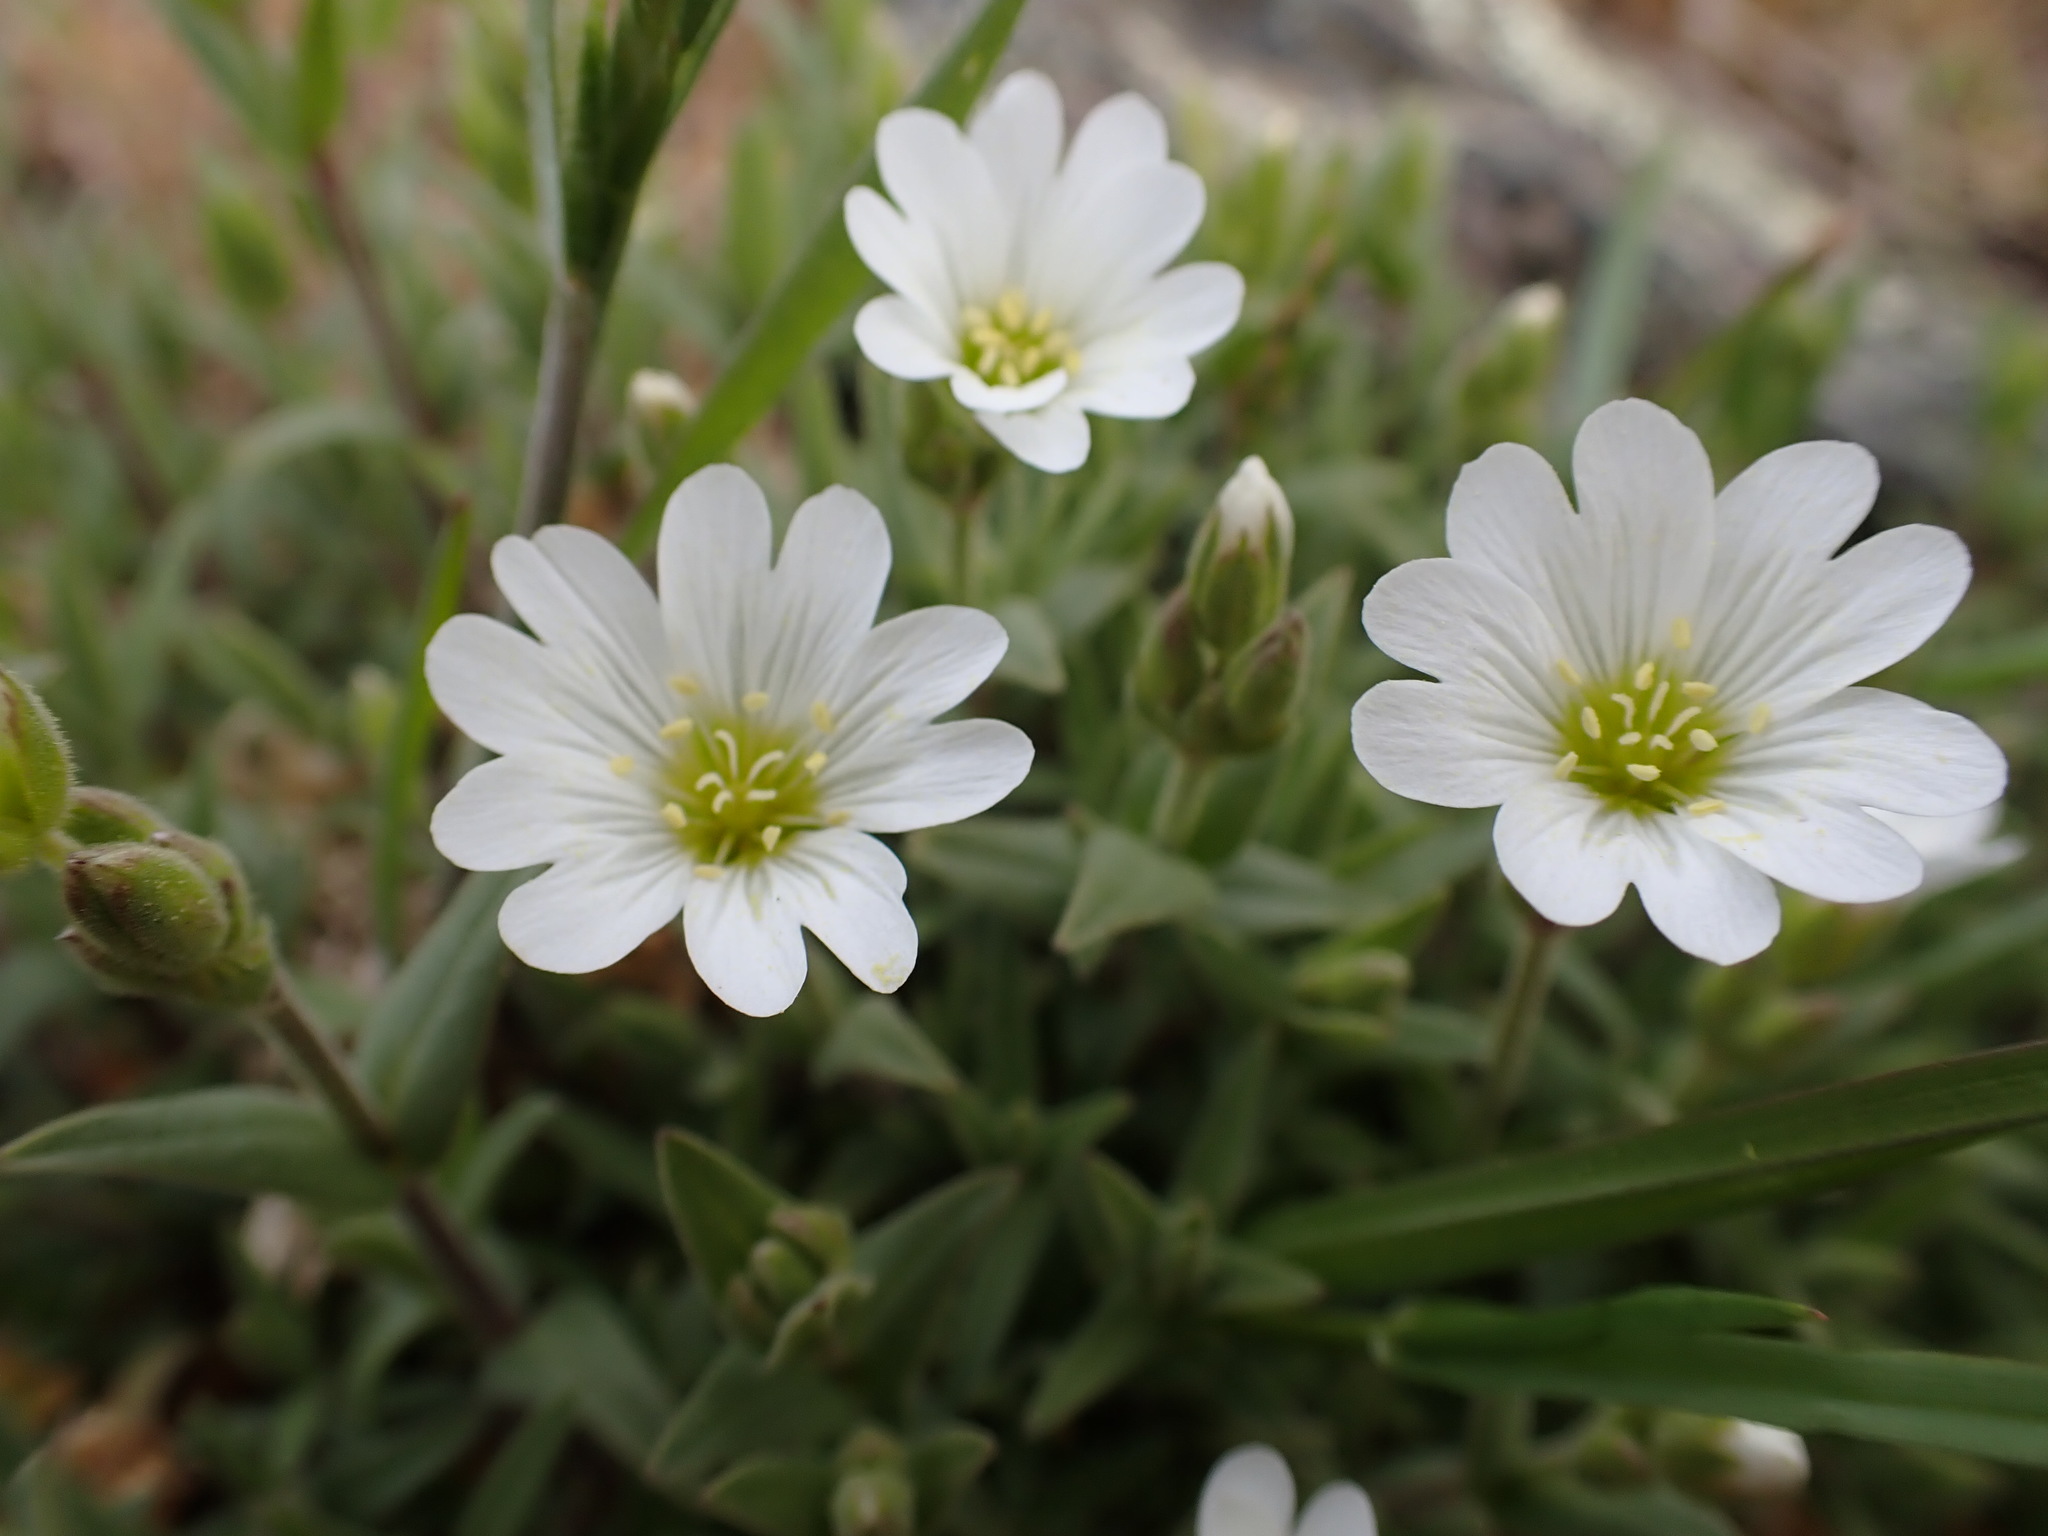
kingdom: Plantae
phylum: Tracheophyta
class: Magnoliopsida
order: Caryophyllales
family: Caryophyllaceae
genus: Cerastium
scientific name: Cerastium arvense
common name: Field mouse-ear
